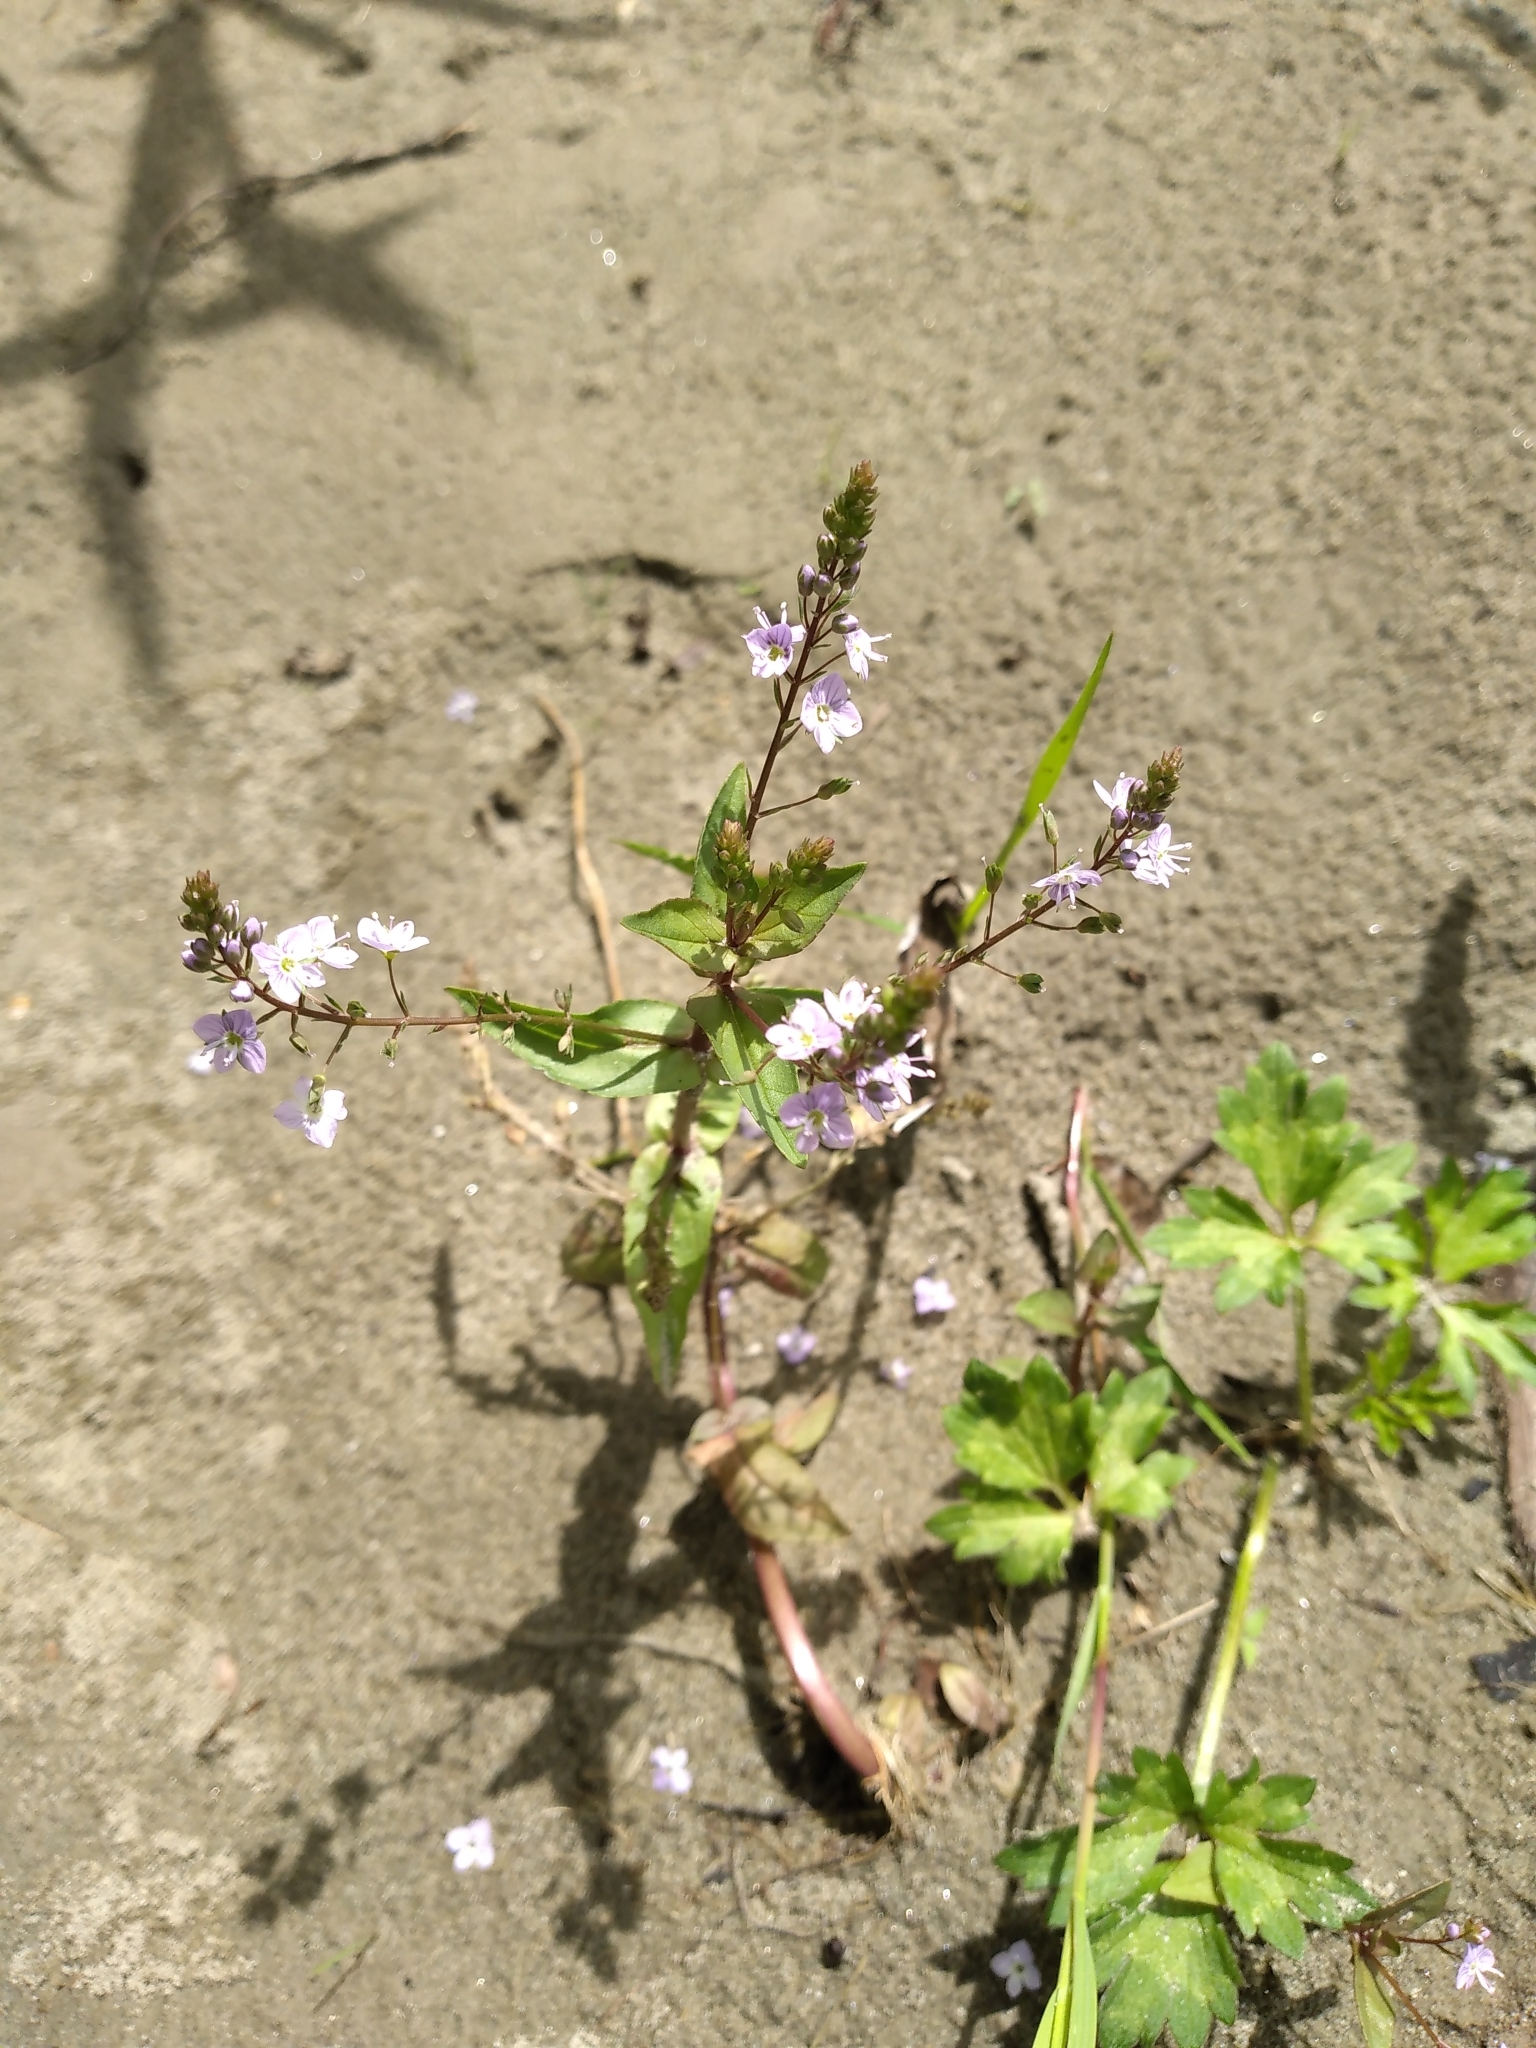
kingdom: Plantae
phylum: Tracheophyta
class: Magnoliopsida
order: Lamiales
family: Plantaginaceae
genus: Veronica
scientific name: Veronica anagallis-aquatica
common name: Water speedwell
